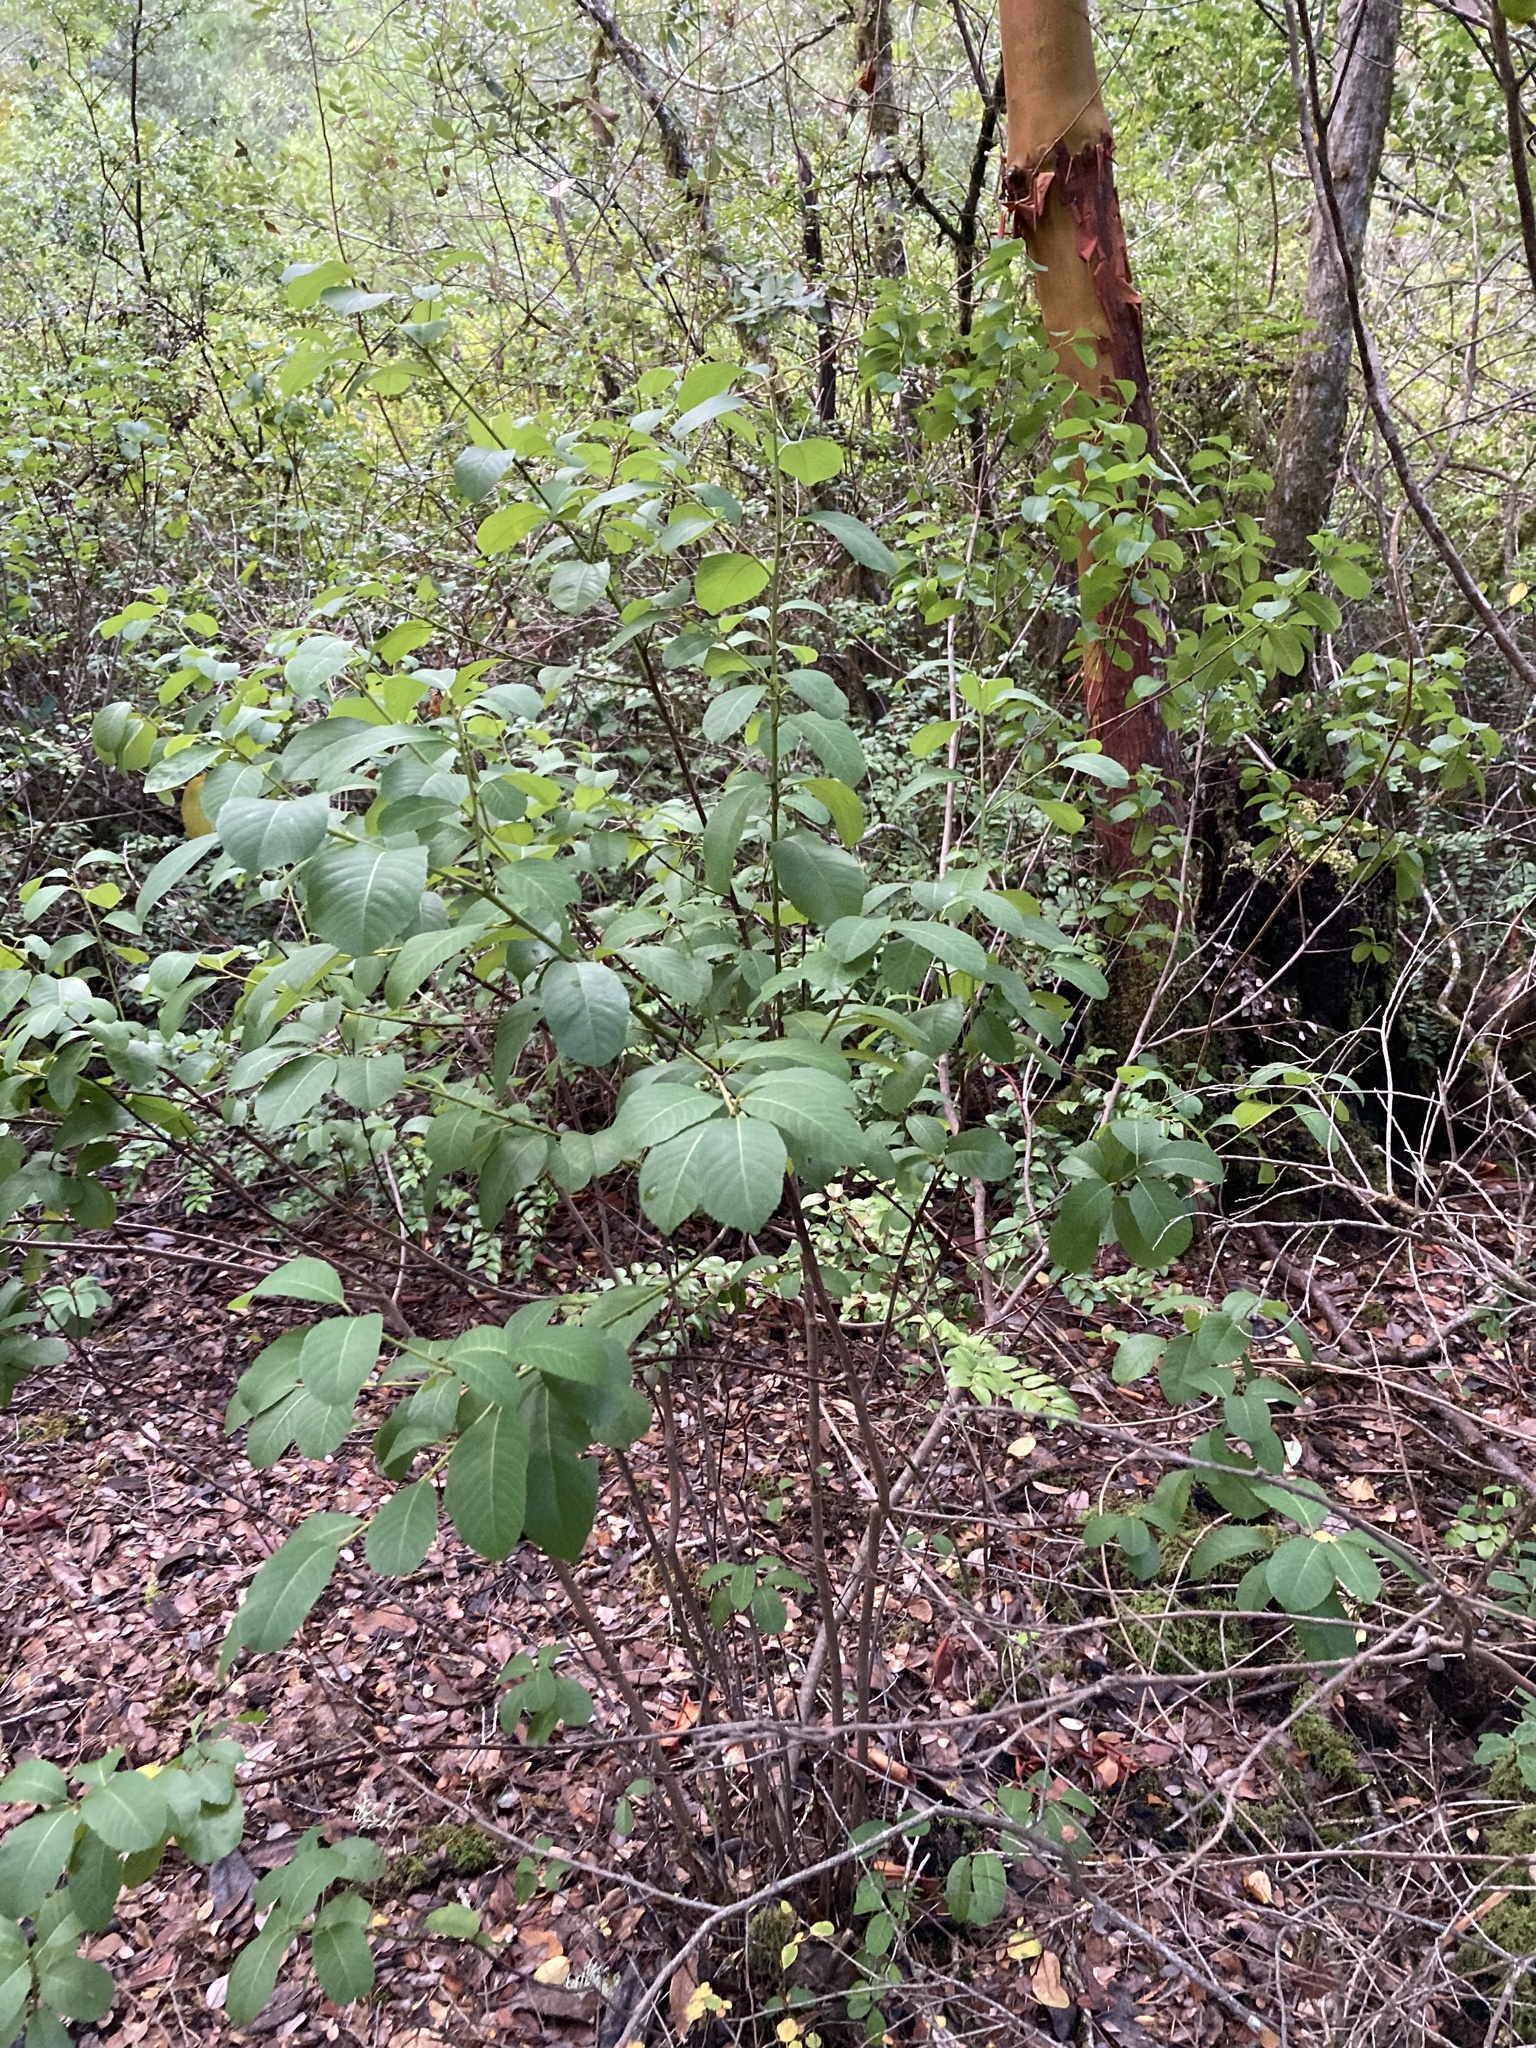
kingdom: Plantae
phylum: Tracheophyta
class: Magnoliopsida
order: Rosales
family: Rhamnaceae
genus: Frangula
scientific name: Frangula californica
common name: California buckthorn
